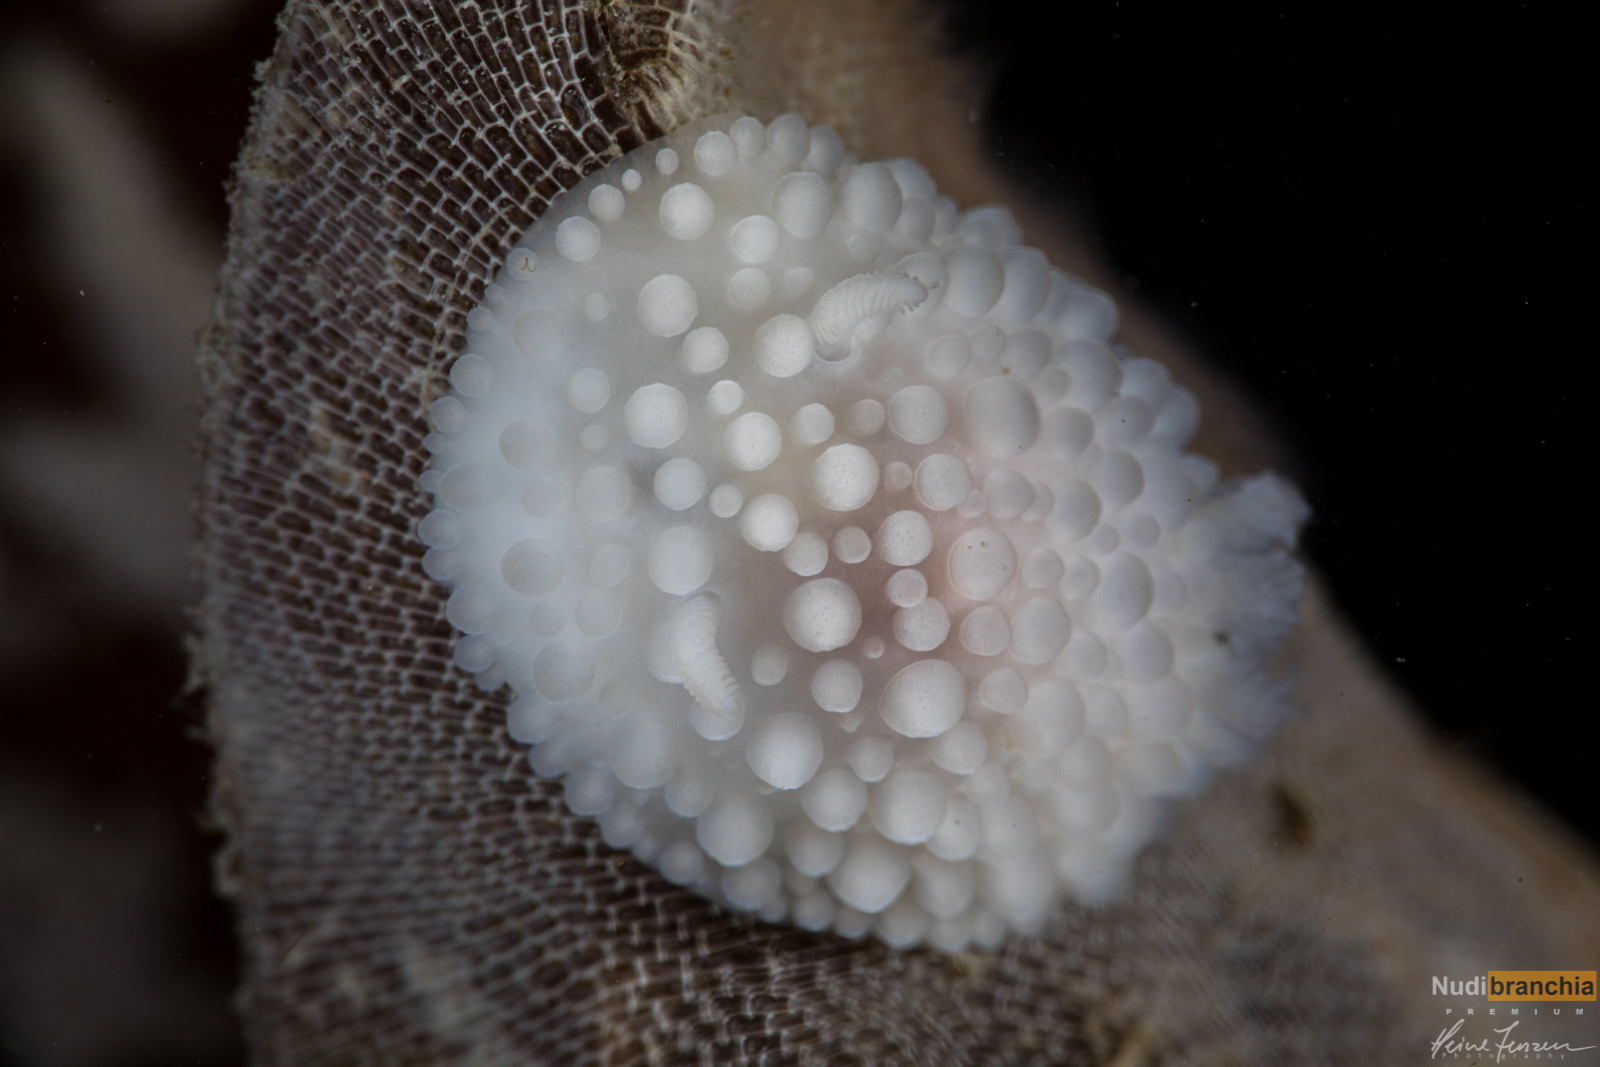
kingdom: Animalia
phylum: Mollusca
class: Gastropoda
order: Nudibranchia
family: Onchidorididae
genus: Adalaria
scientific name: Adalaria proxima
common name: False doris
